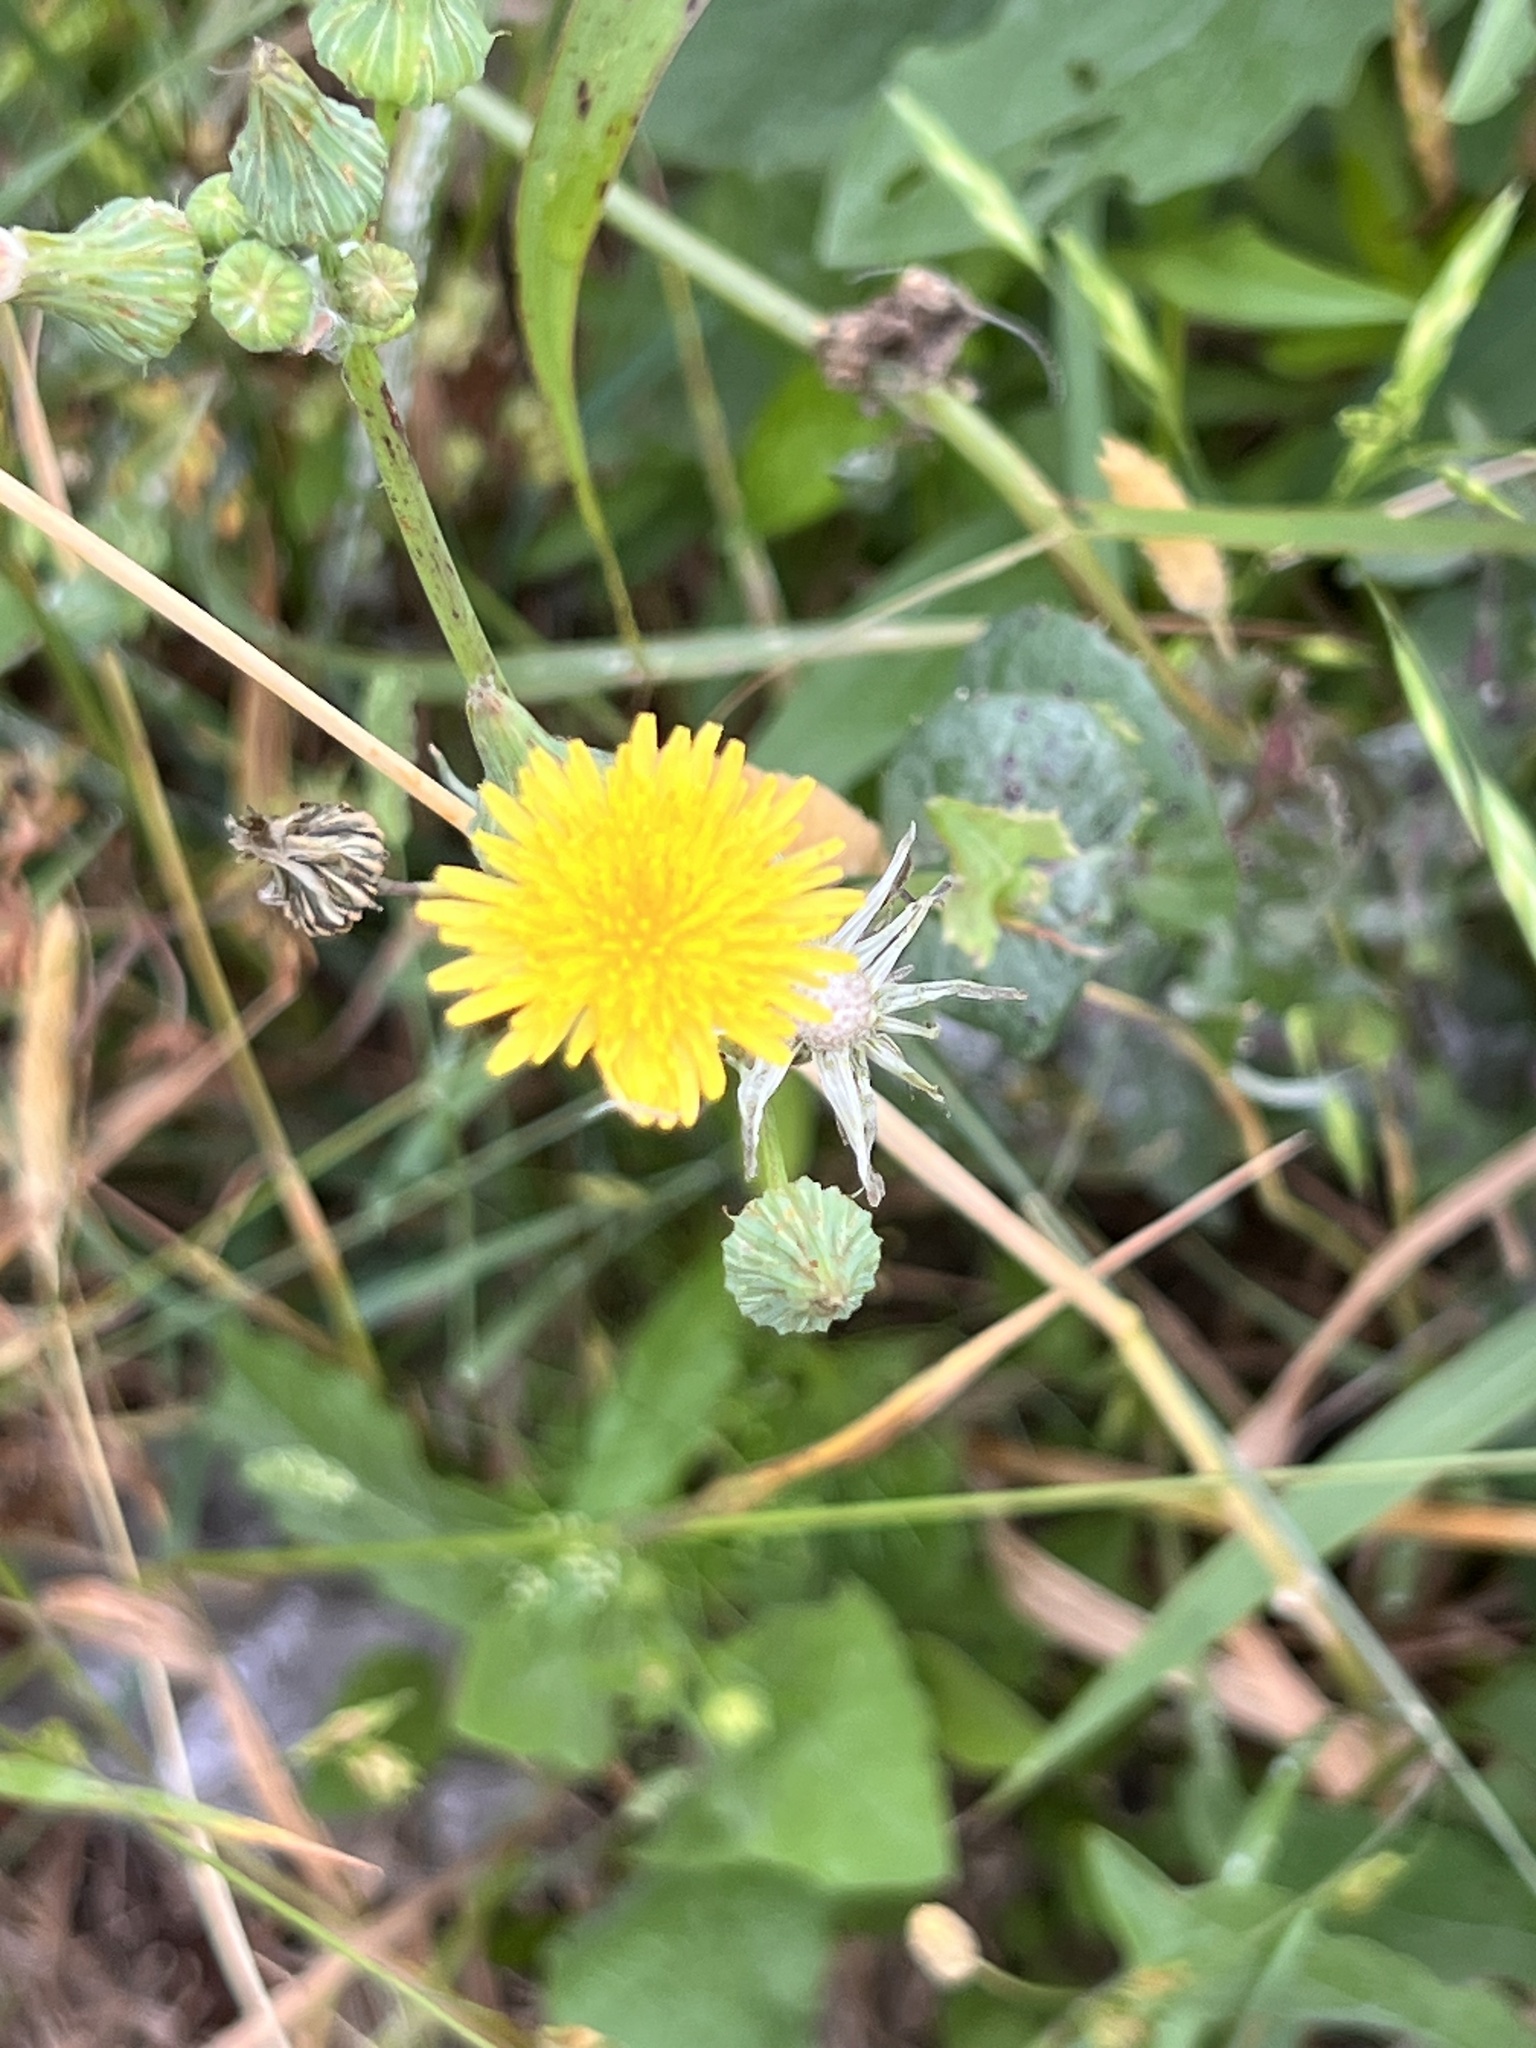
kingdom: Plantae
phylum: Tracheophyta
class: Magnoliopsida
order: Asterales
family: Asteraceae
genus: Sonchus
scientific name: Sonchus oleraceus
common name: Common sowthistle
